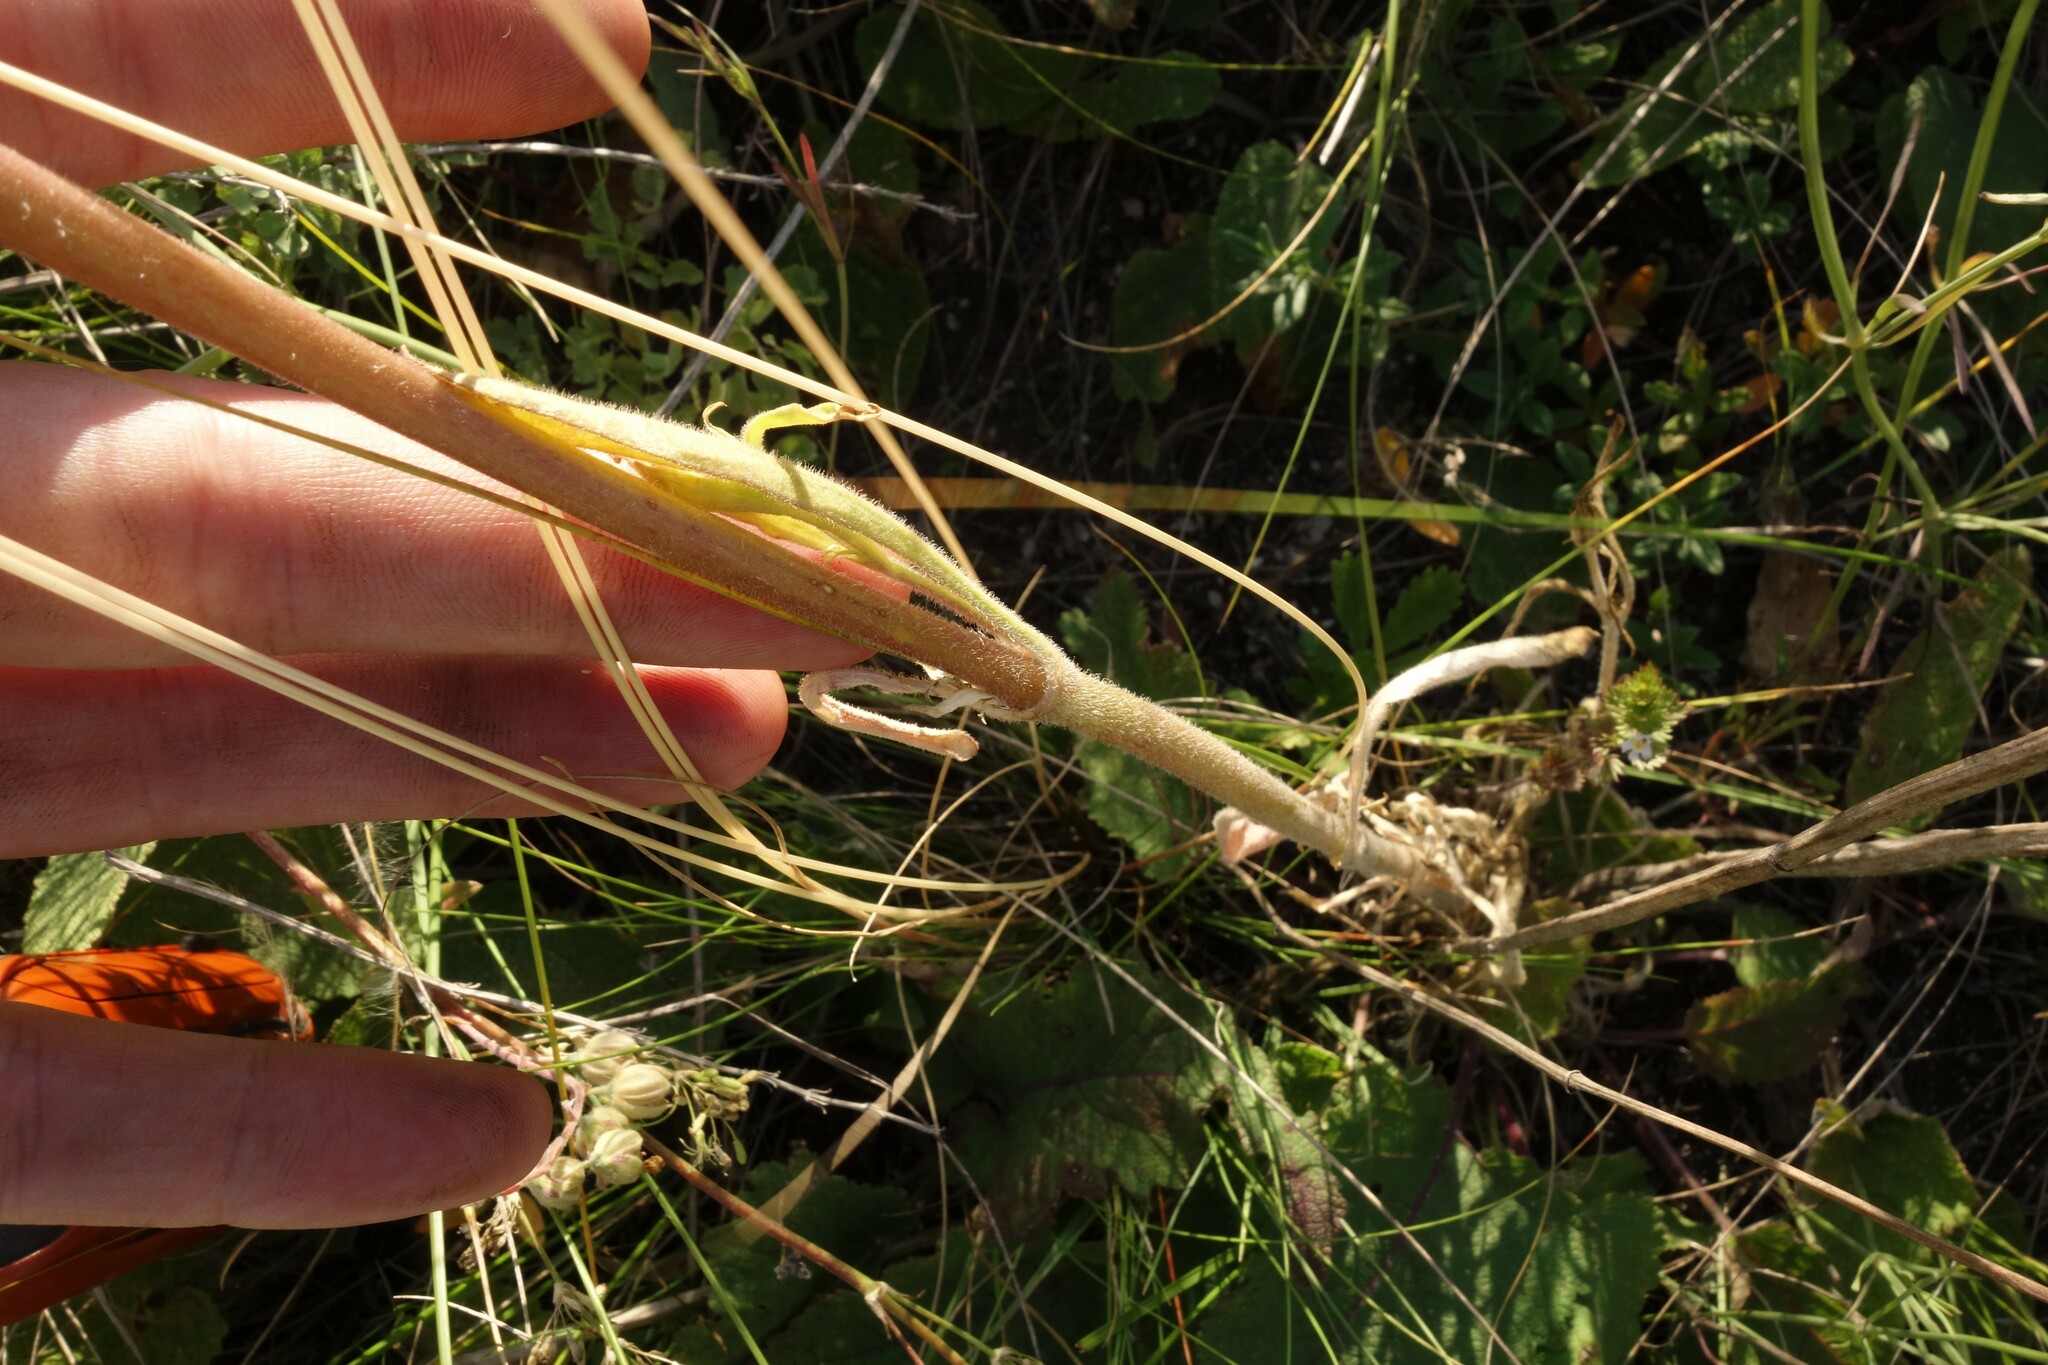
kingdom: Plantae
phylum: Tracheophyta
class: Magnoliopsida
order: Caryophyllales
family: Caryophyllaceae
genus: Silene
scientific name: Silene borysthenica
